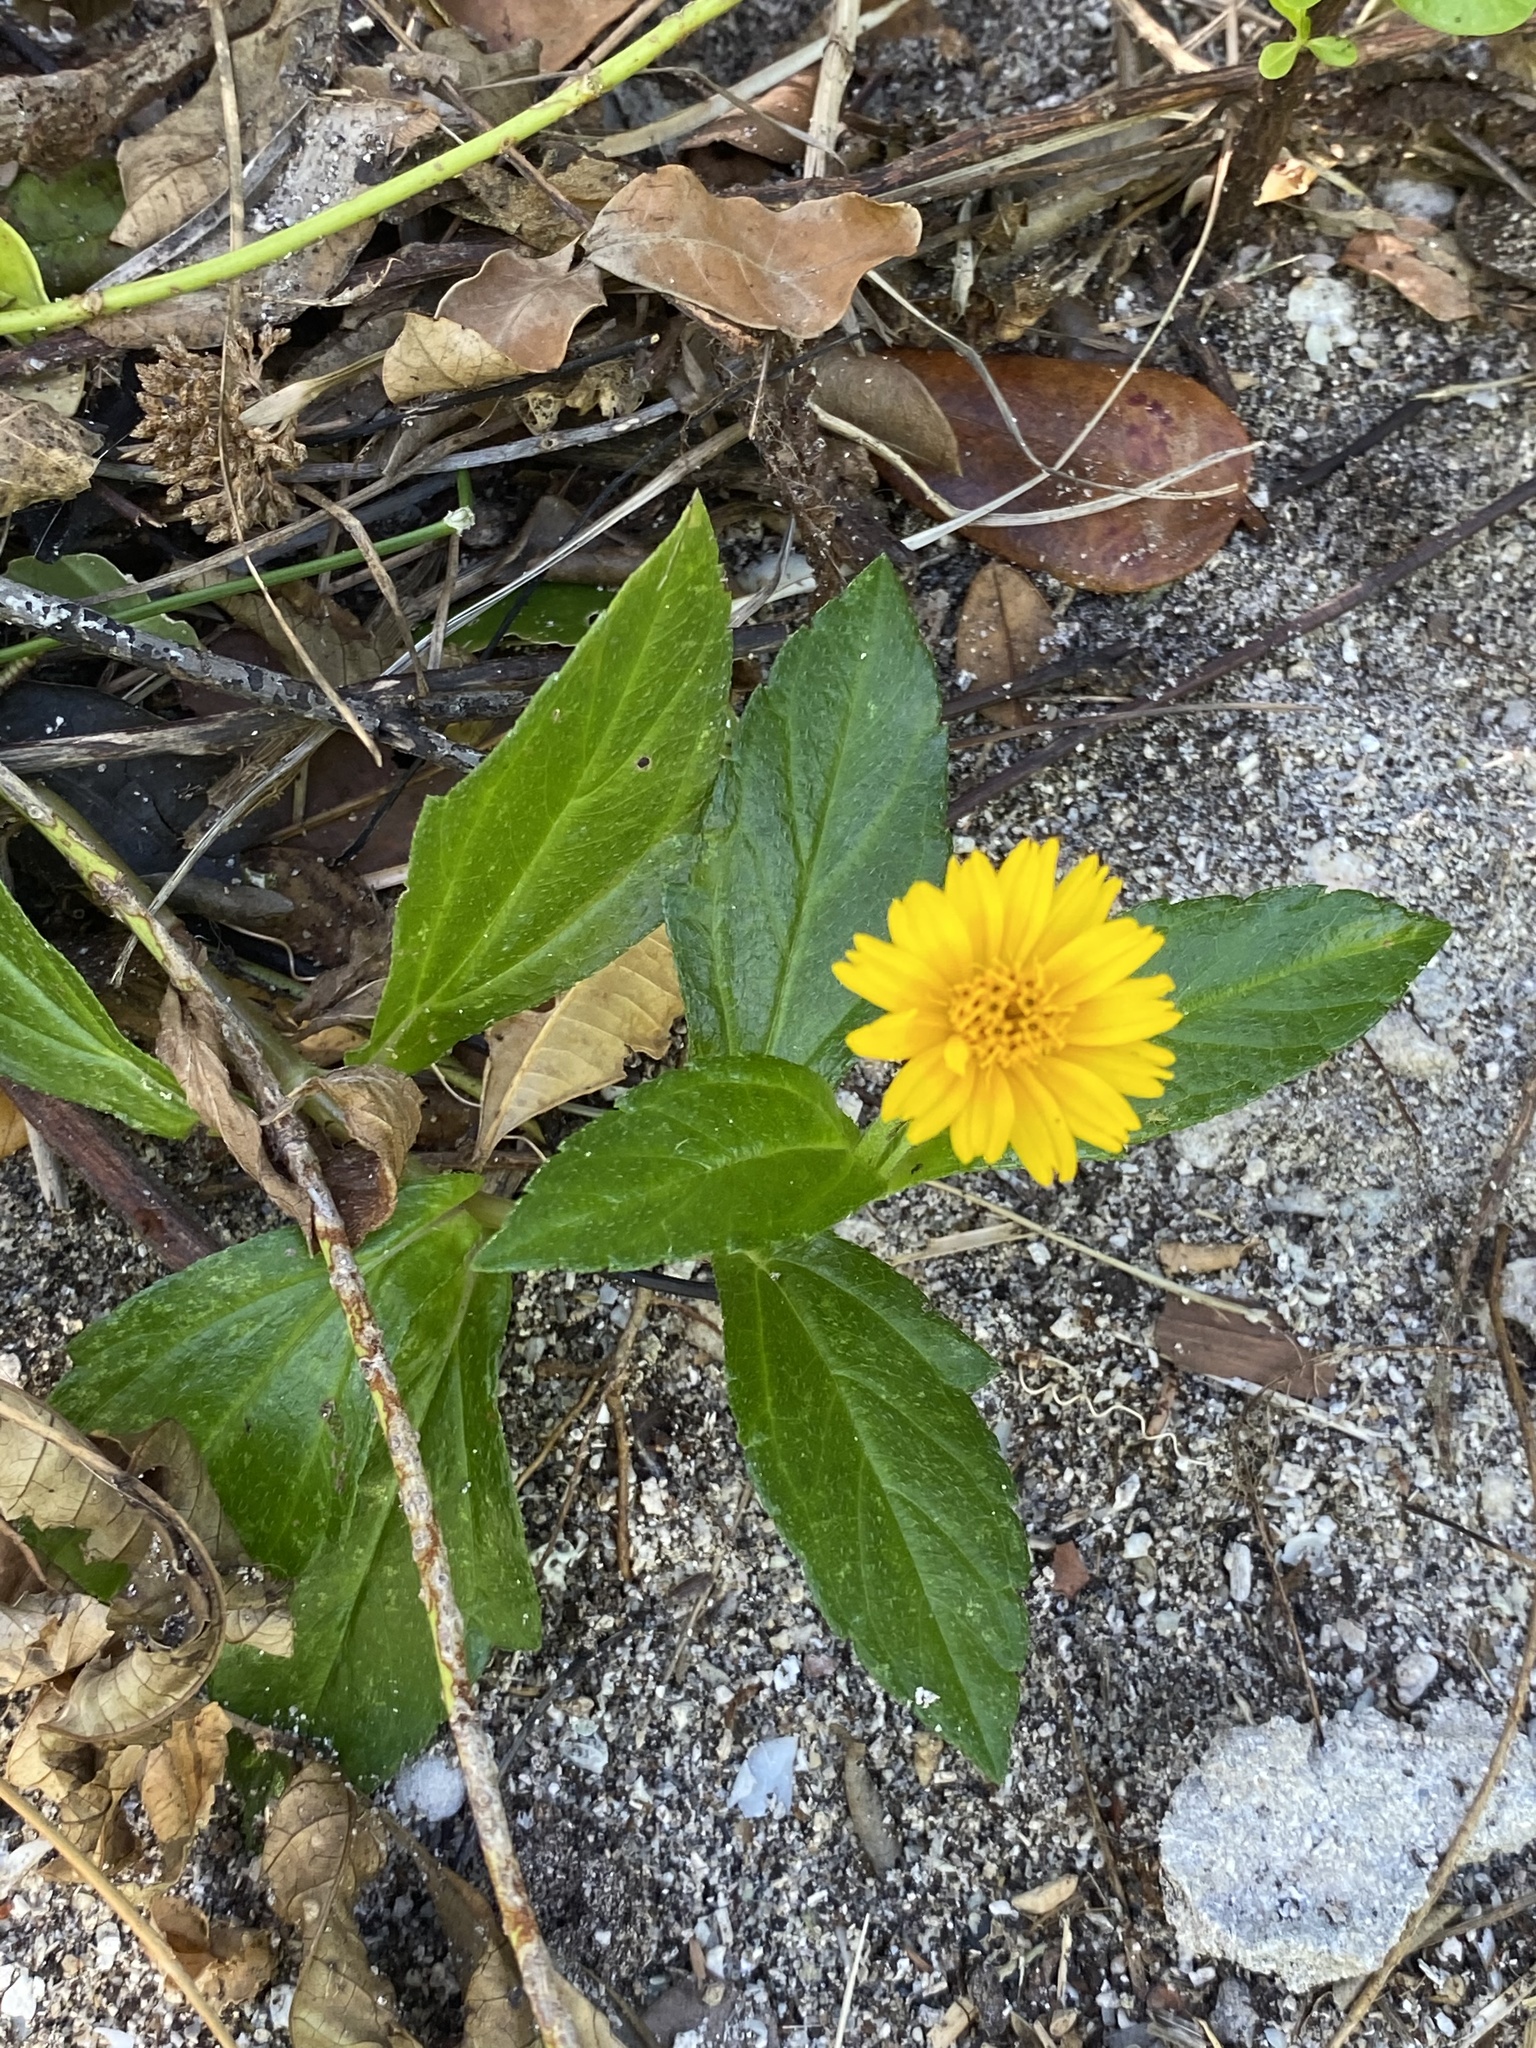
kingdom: Plantae
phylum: Tracheophyta
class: Magnoliopsida
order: Asterales
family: Asteraceae
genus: Sphagneticola
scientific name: Sphagneticola trilobata
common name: Bay biscayne creeping-oxeye
